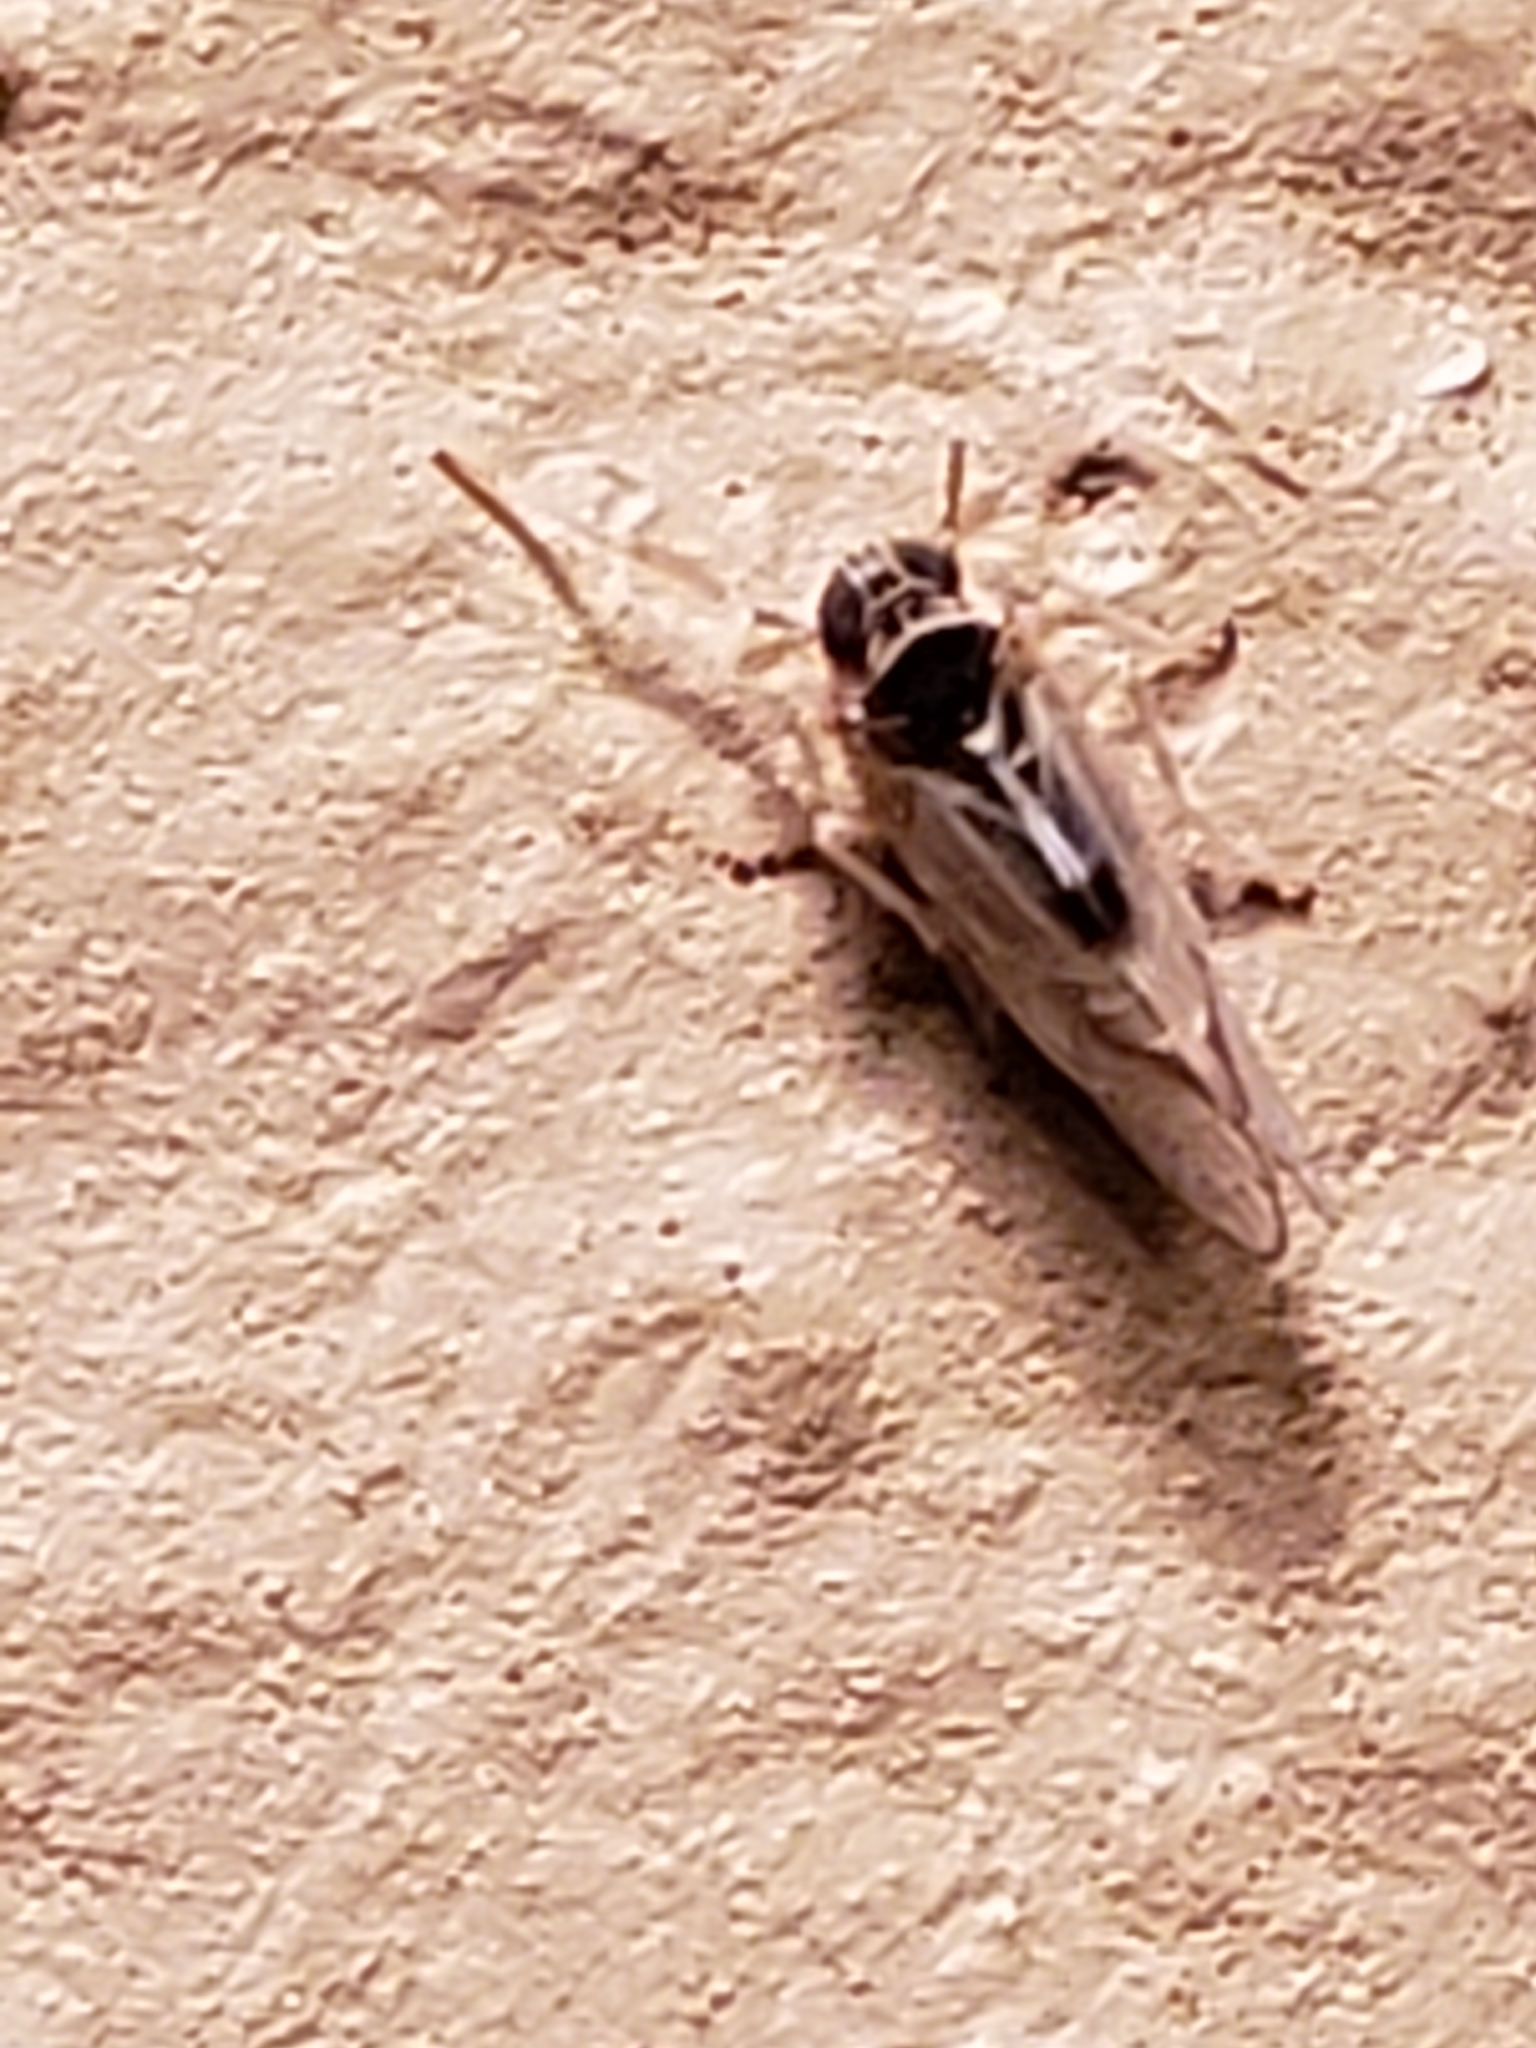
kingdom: Animalia
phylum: Arthropoda
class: Insecta
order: Hemiptera
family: Delphacidae
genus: Chionomus
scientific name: Chionomus
